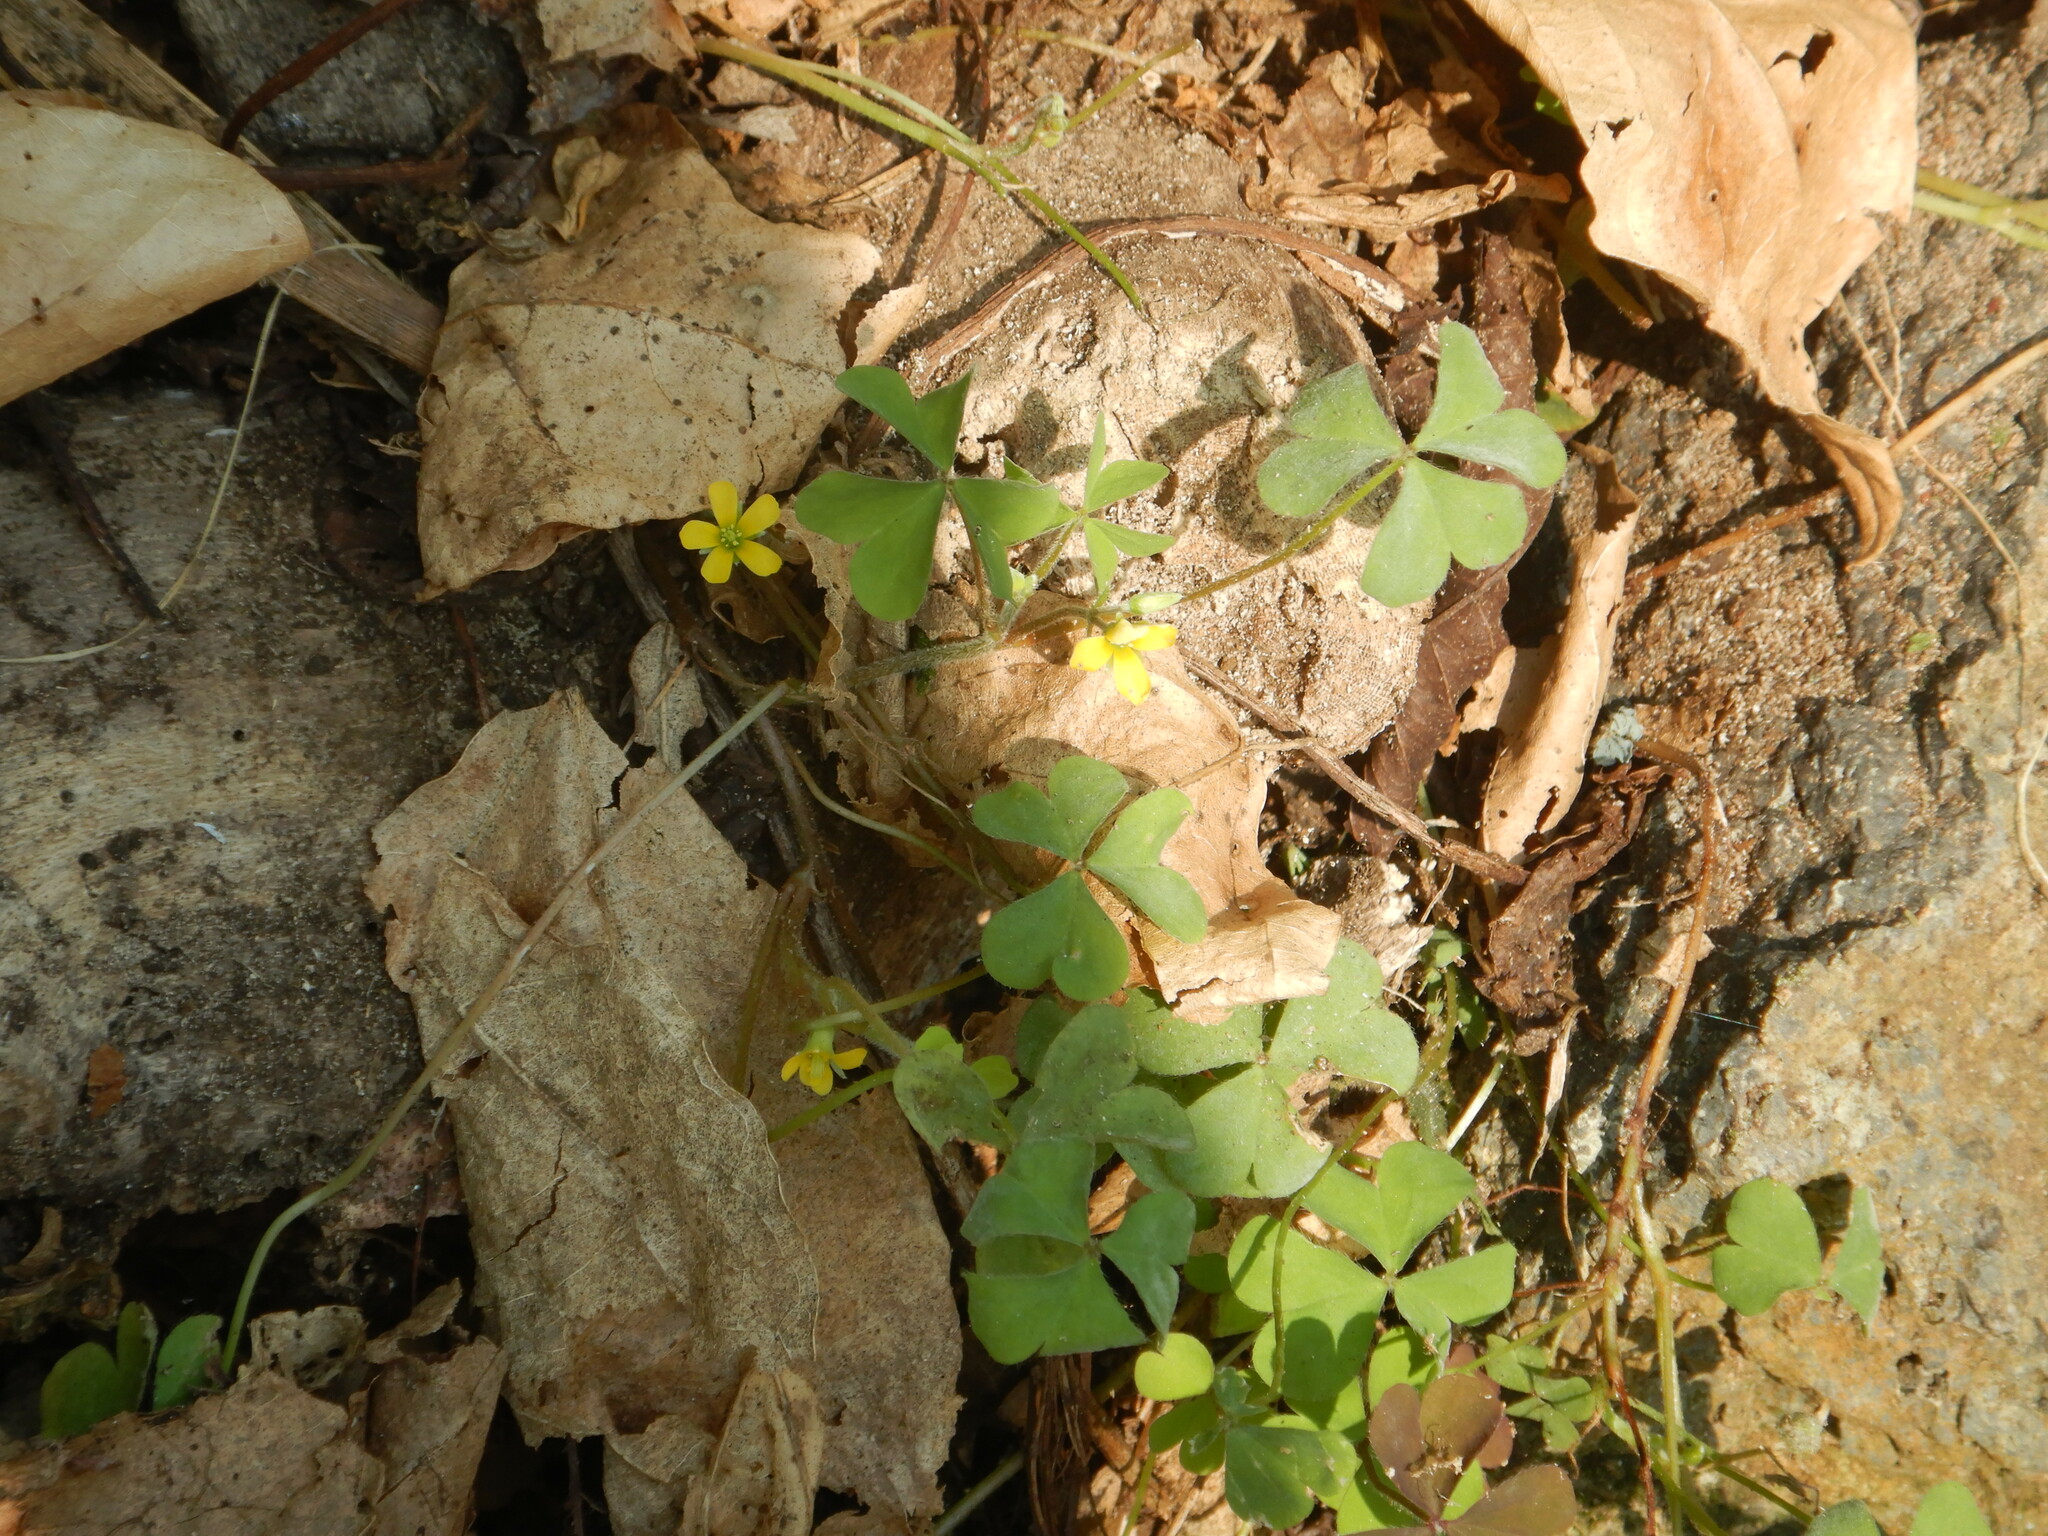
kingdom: Plantae
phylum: Tracheophyta
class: Magnoliopsida
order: Oxalidales
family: Oxalidaceae
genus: Oxalis
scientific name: Oxalis corniculata
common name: Procumbent yellow-sorrel
